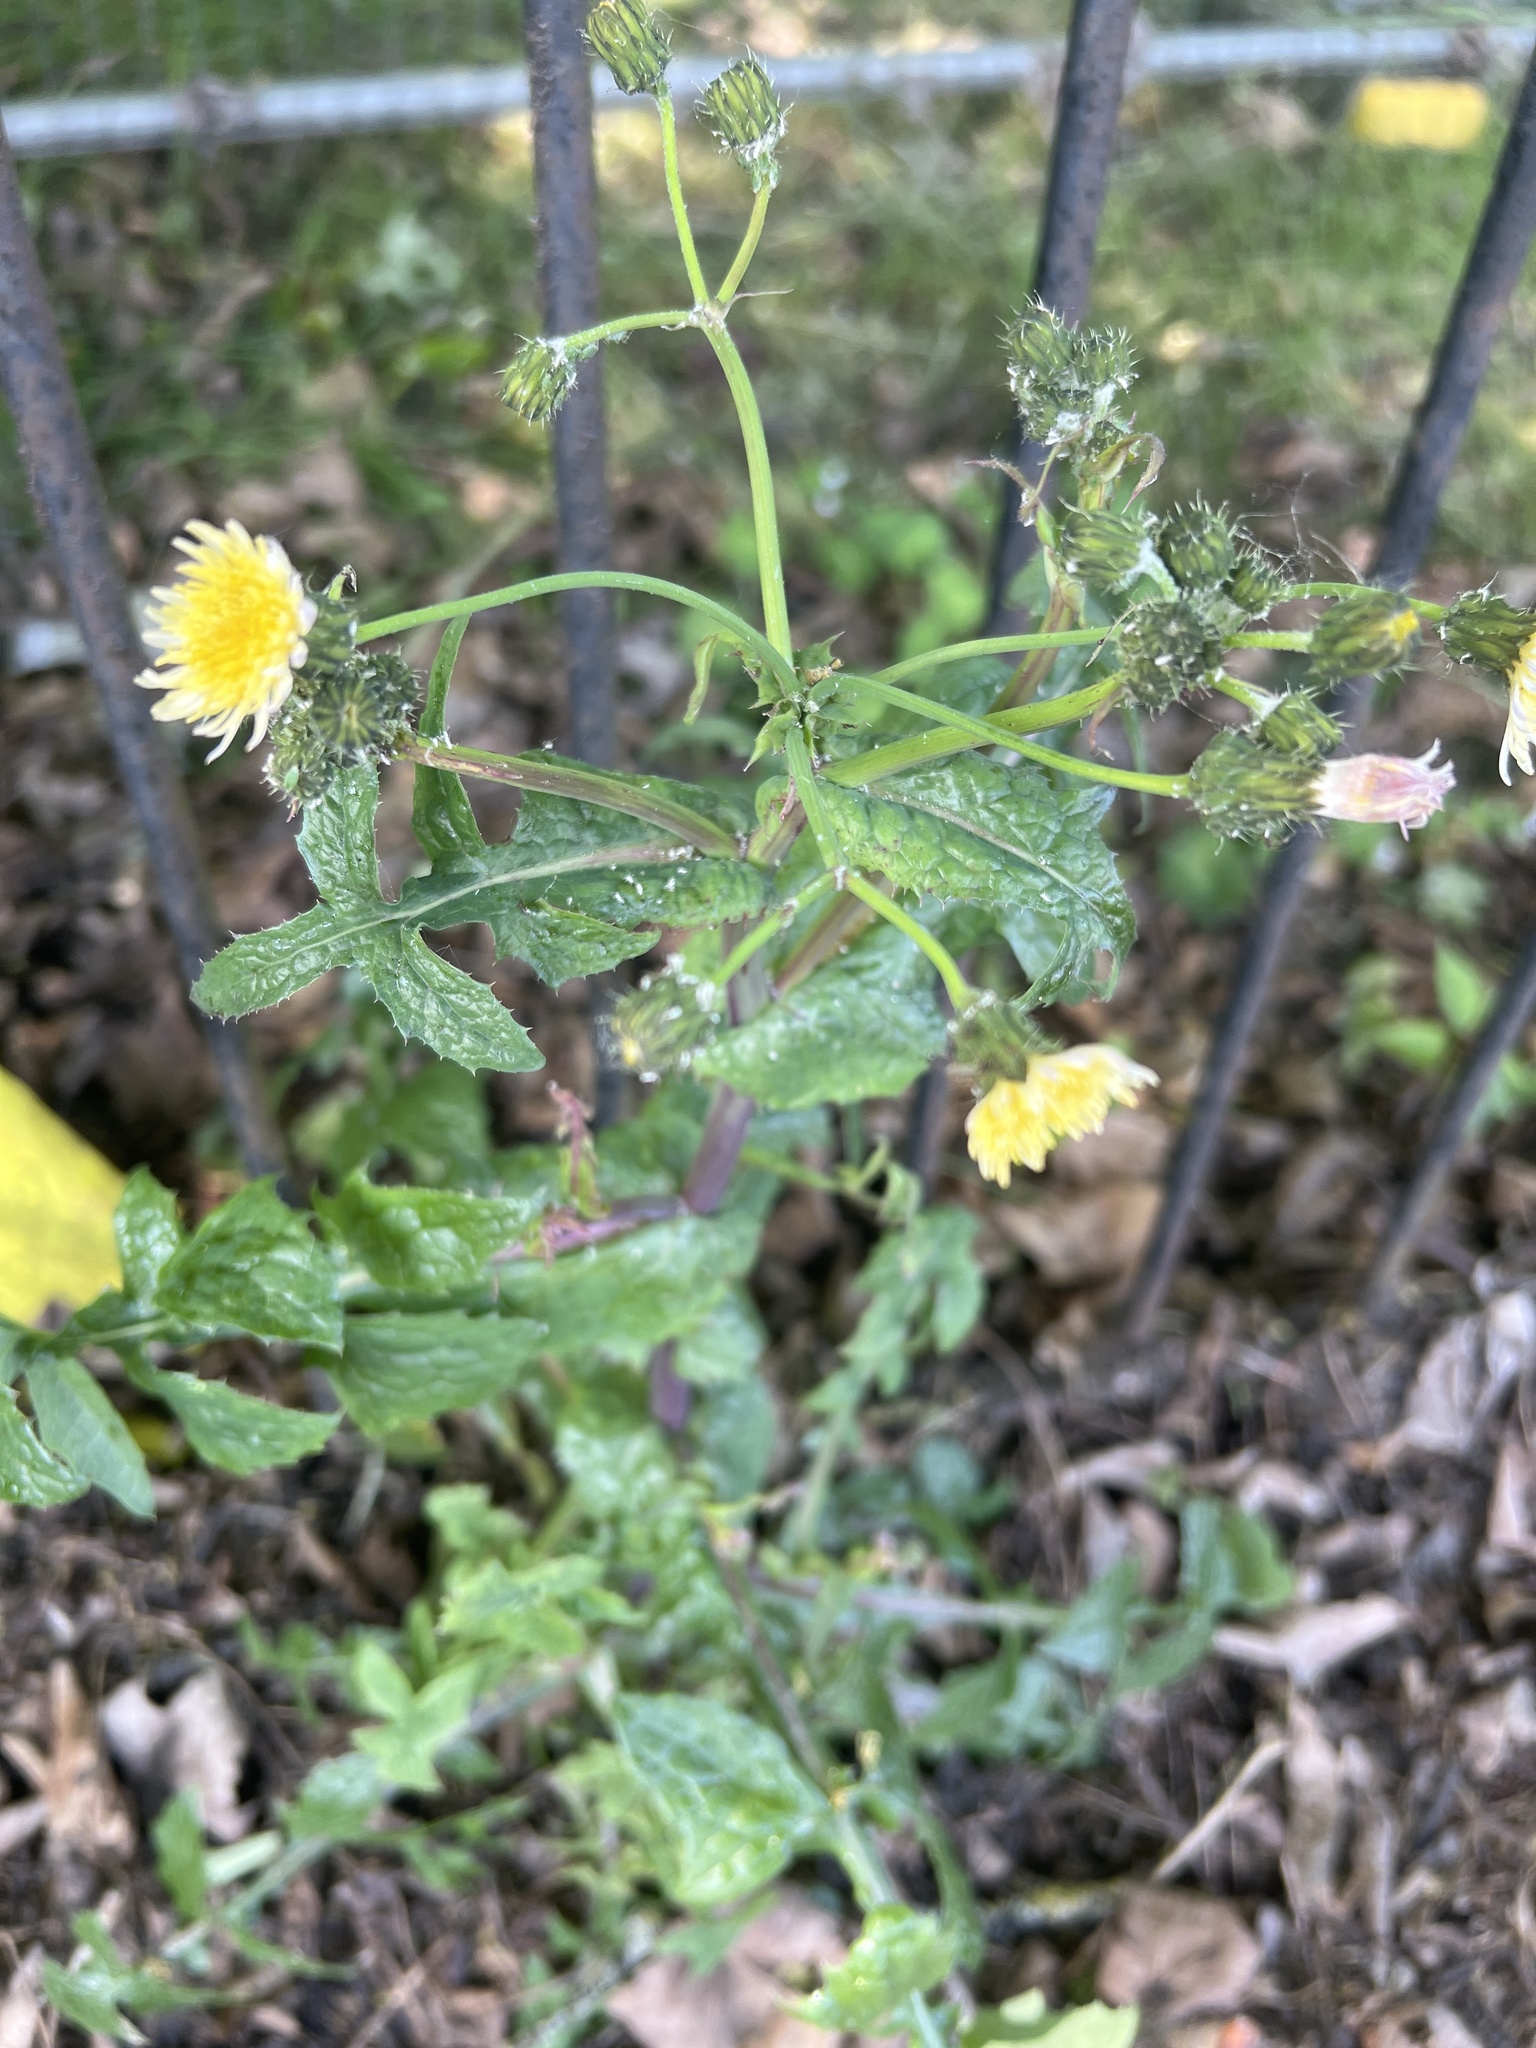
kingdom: Plantae
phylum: Tracheophyta
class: Magnoliopsida
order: Asterales
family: Asteraceae
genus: Sonchus
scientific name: Sonchus oleraceus
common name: Common sowthistle
